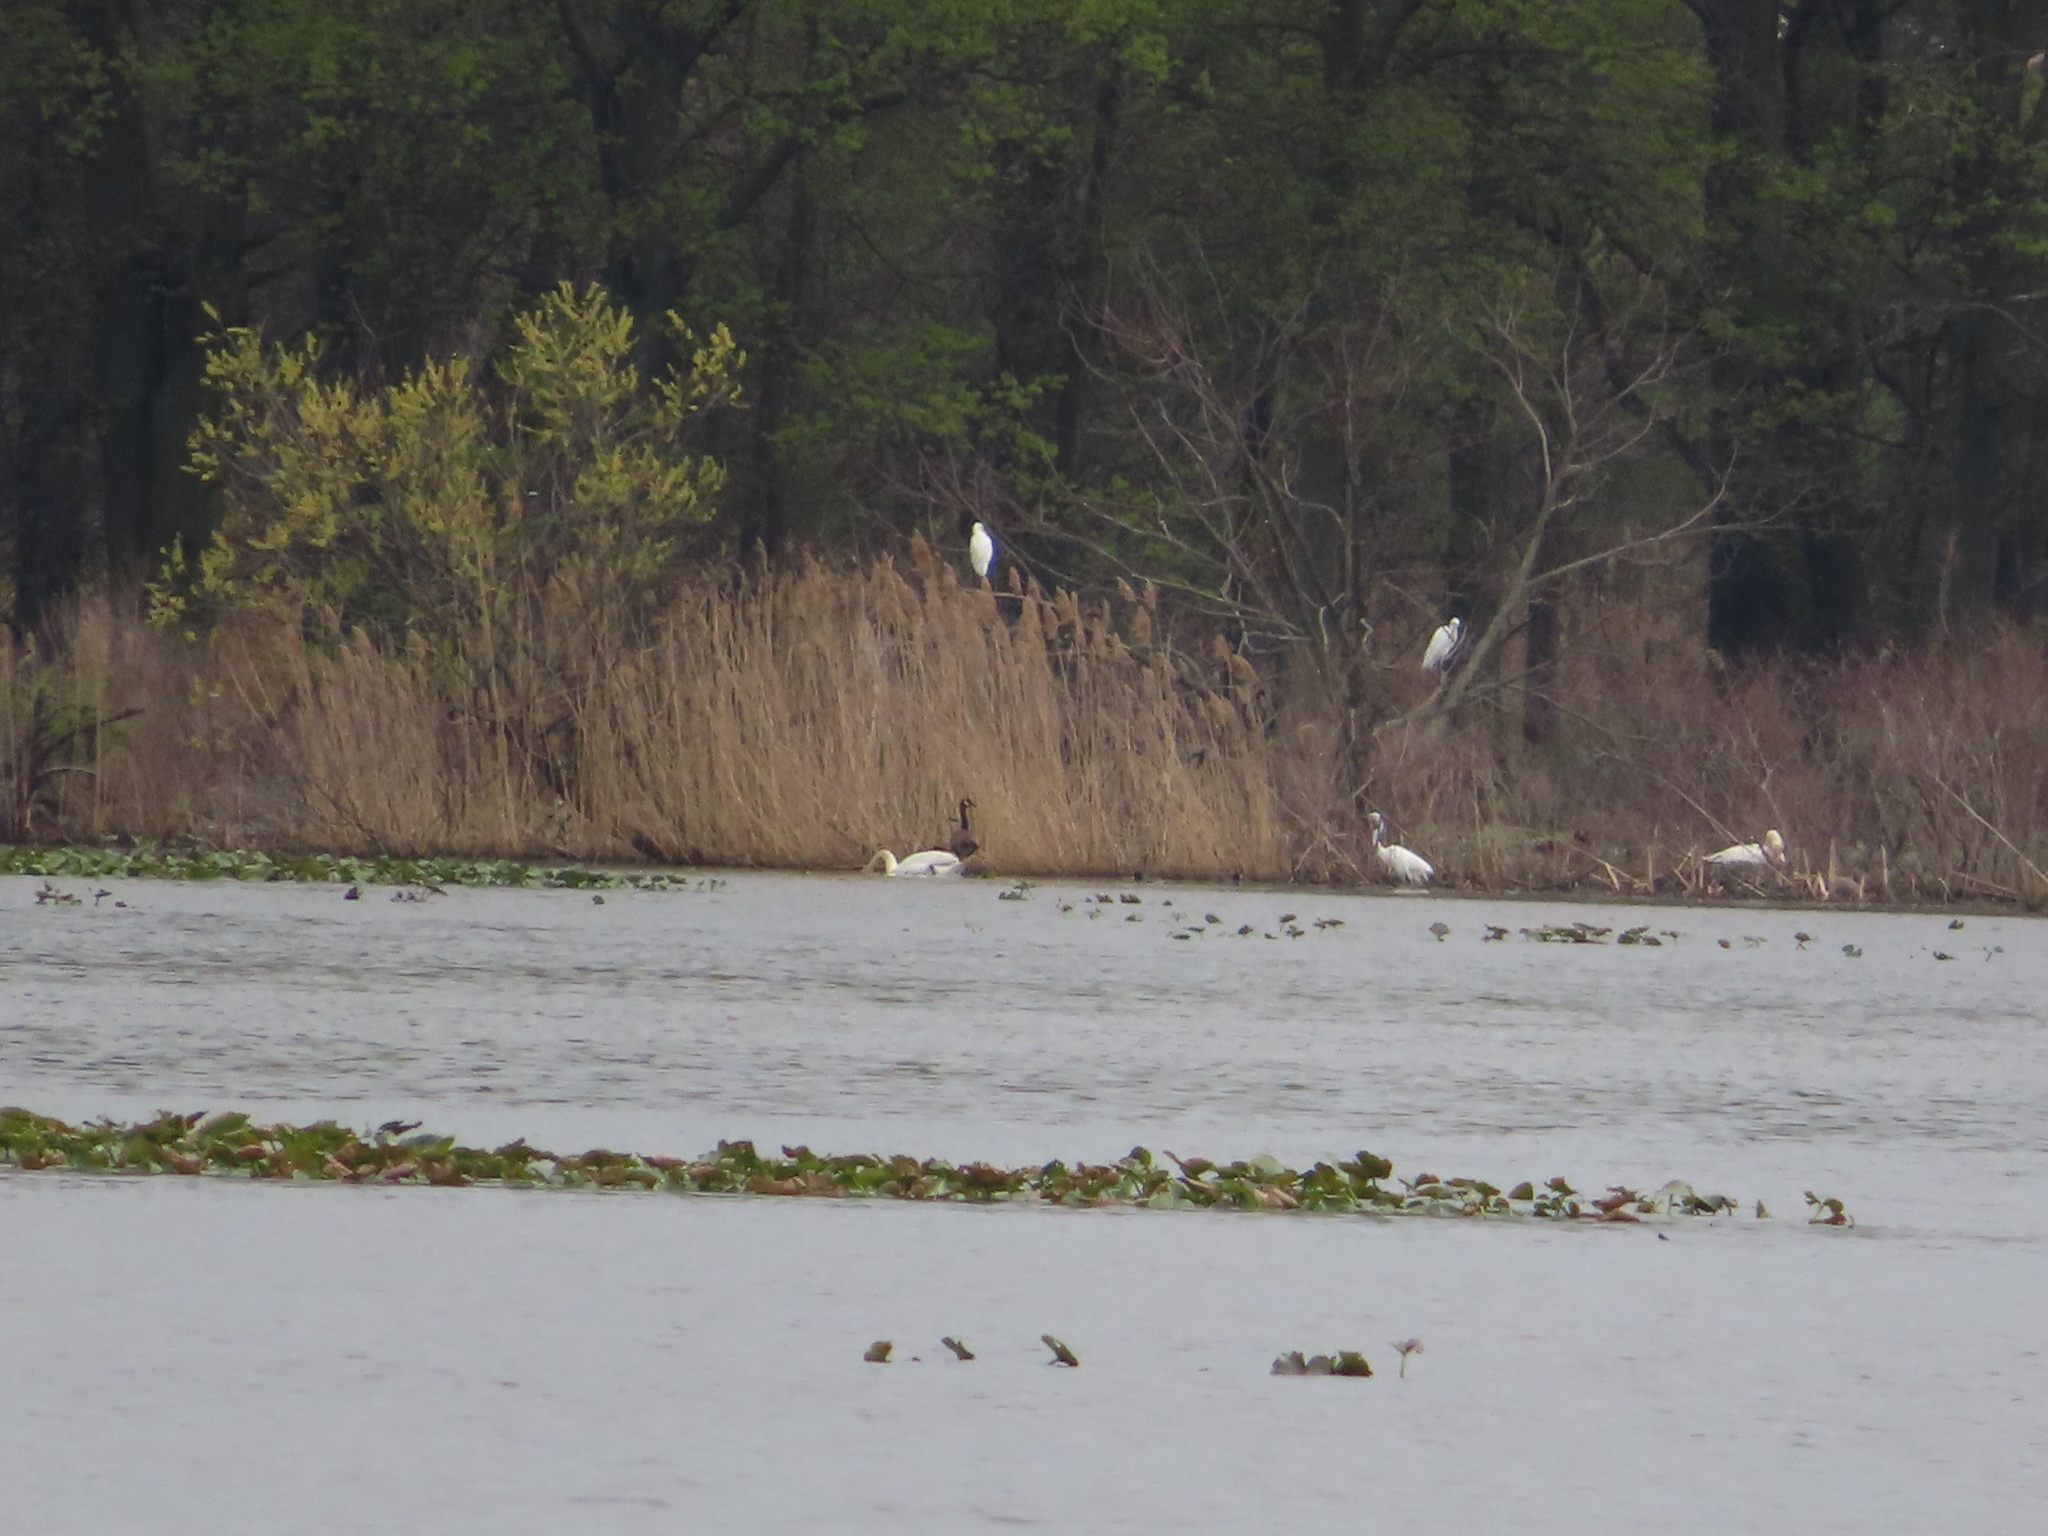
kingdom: Animalia
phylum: Chordata
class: Aves
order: Anseriformes
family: Anatidae
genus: Cygnus
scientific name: Cygnus olor
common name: Mute swan
